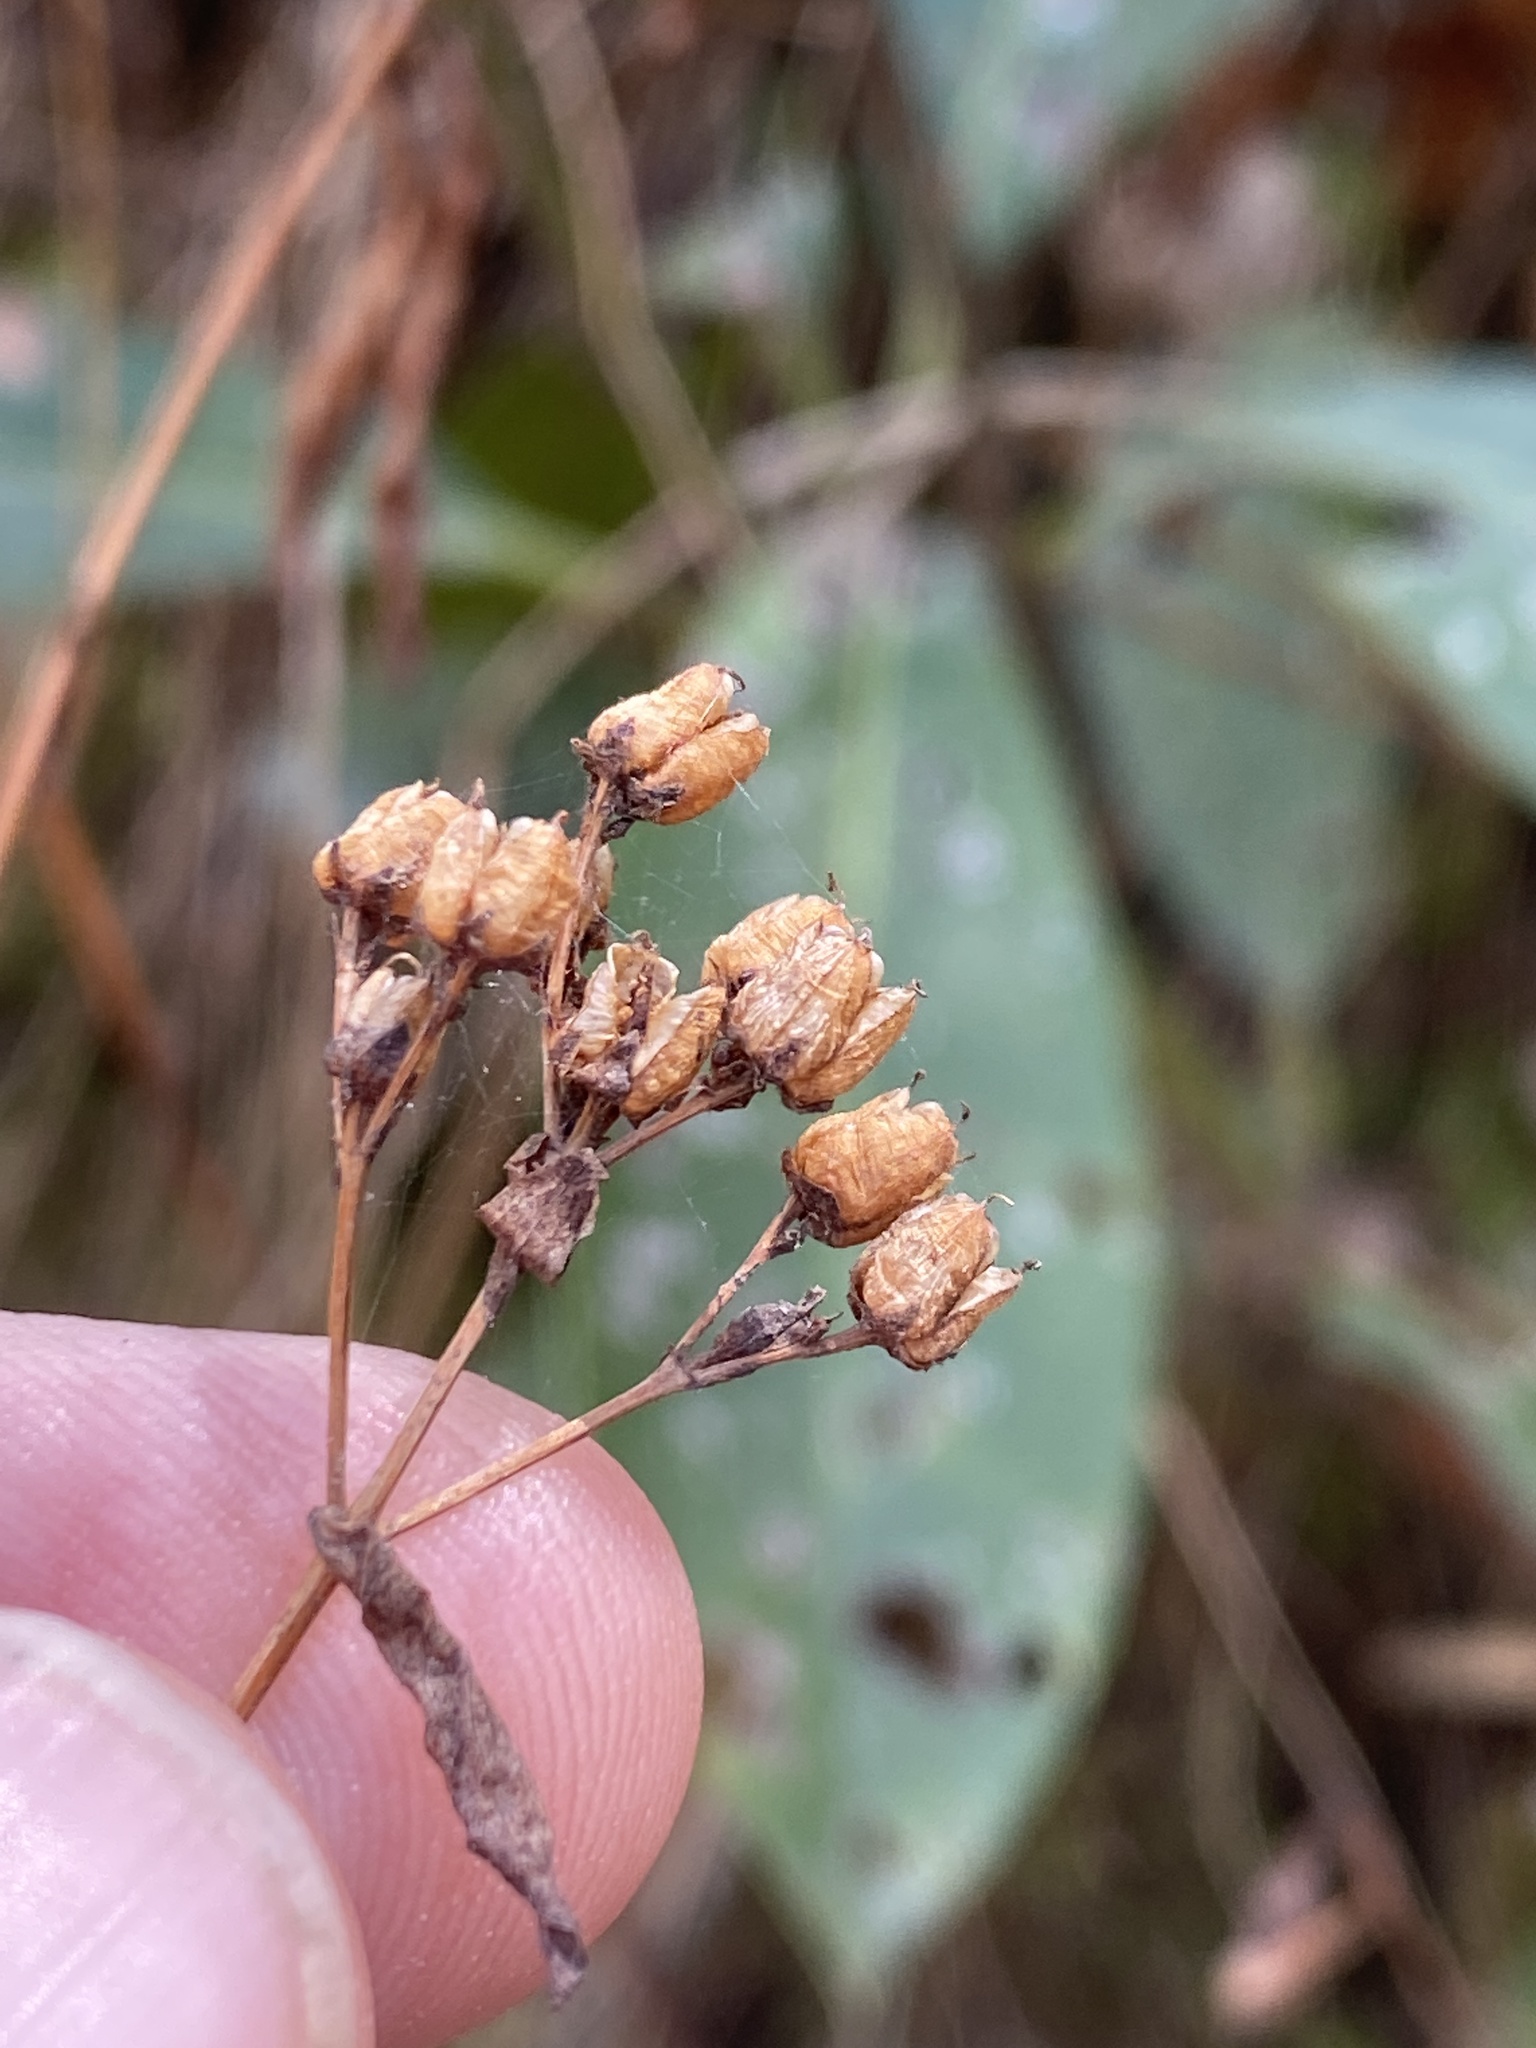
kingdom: Plantae
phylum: Tracheophyta
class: Magnoliopsida
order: Malpighiales
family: Hypericaceae
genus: Hypericum
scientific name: Hypericum punctatum
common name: Spotted st. john's-wort
